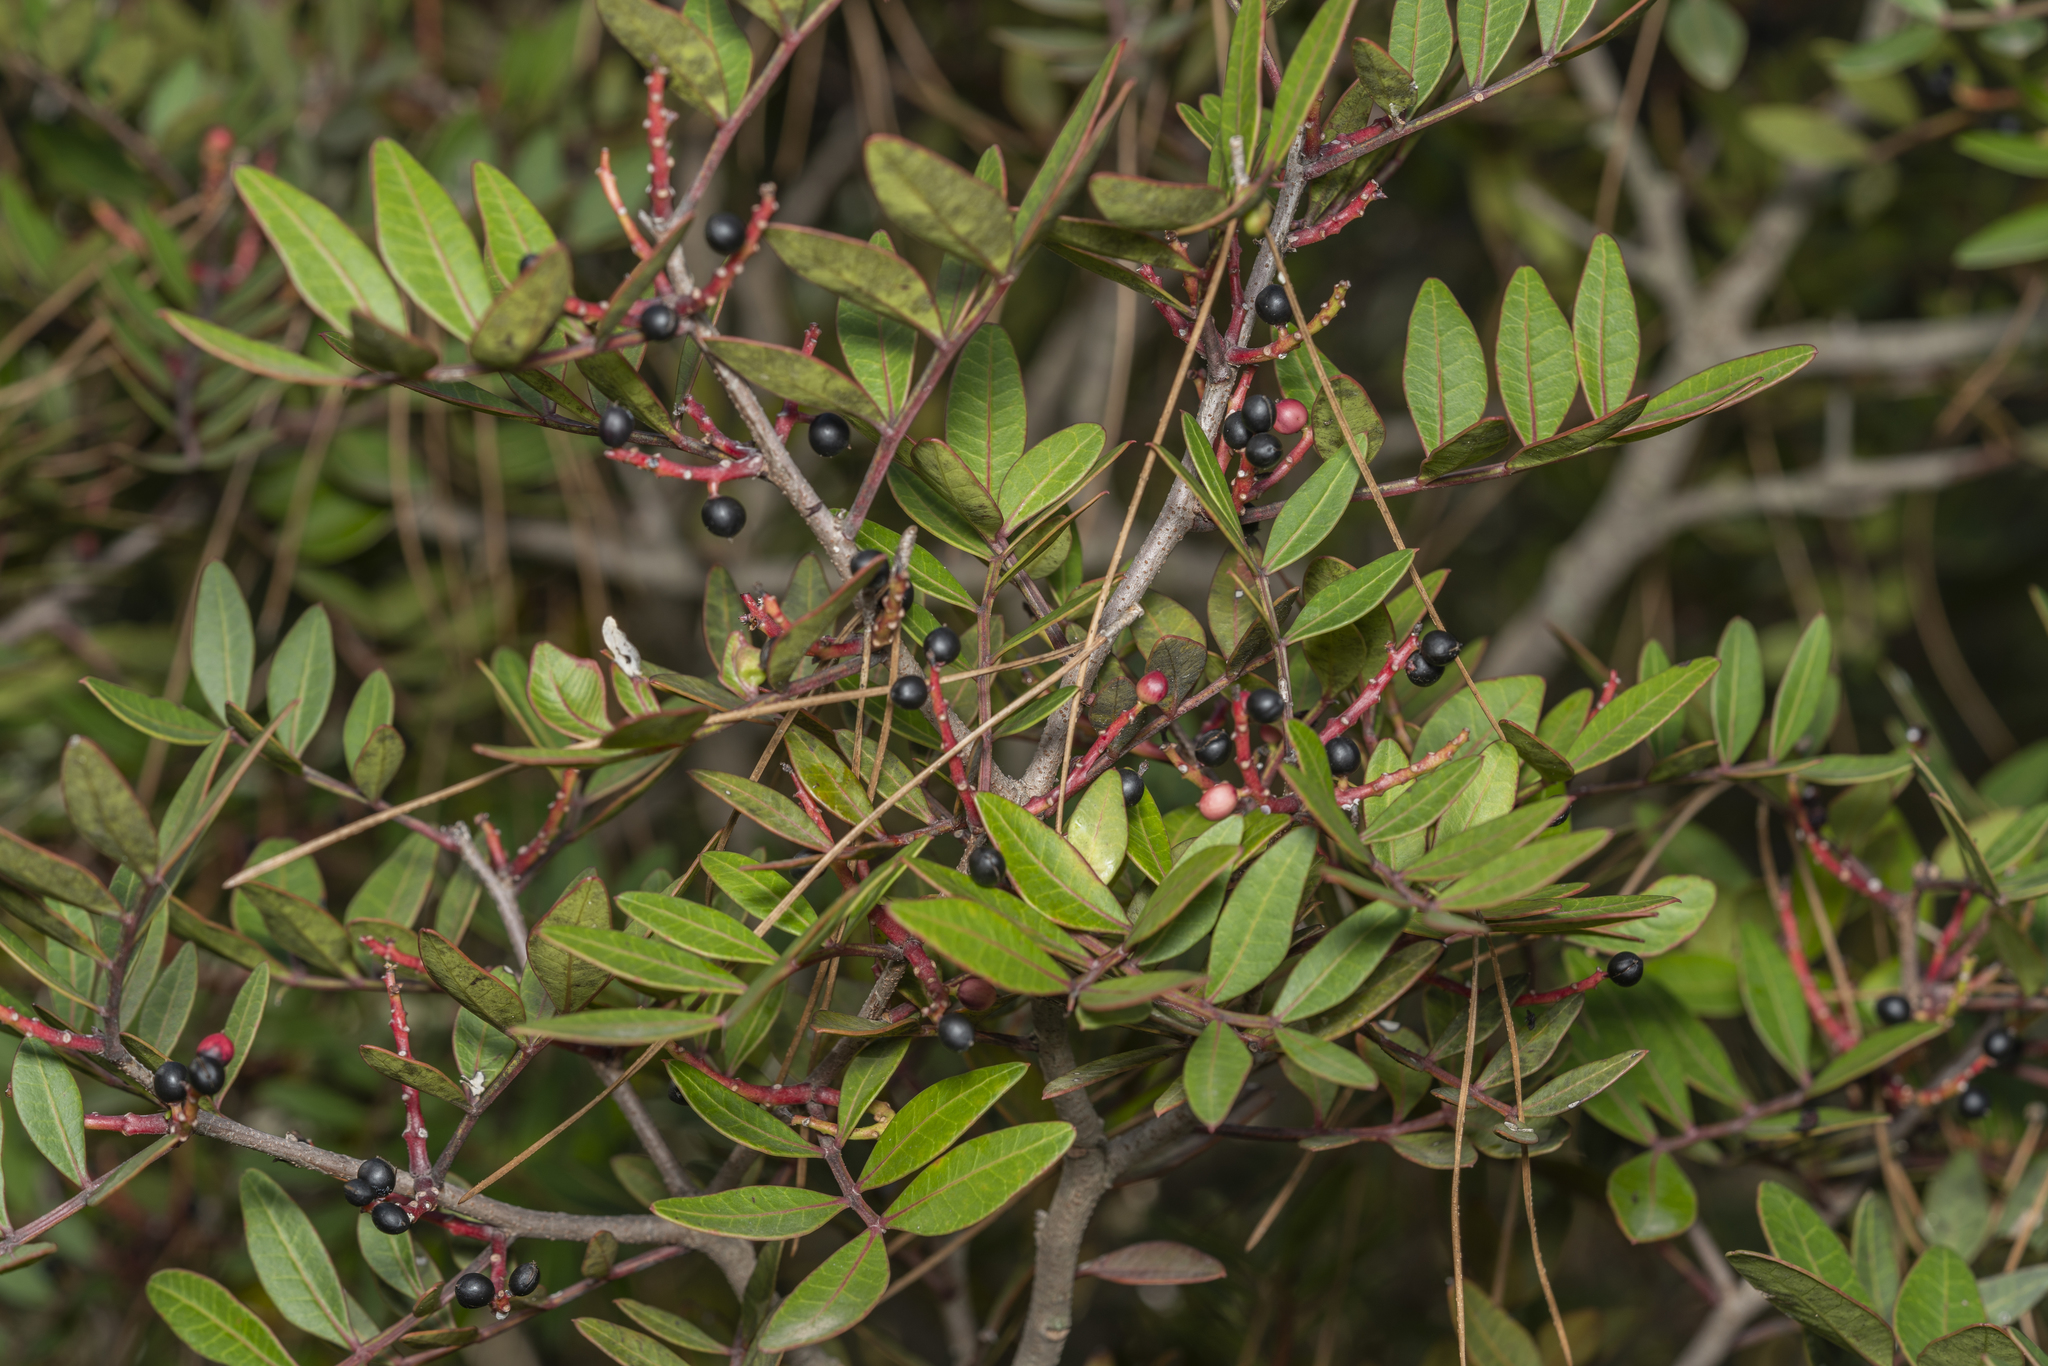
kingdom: Plantae
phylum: Tracheophyta
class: Magnoliopsida
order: Sapindales
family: Anacardiaceae
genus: Pistacia
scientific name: Pistacia lentiscus
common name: Lentisk
